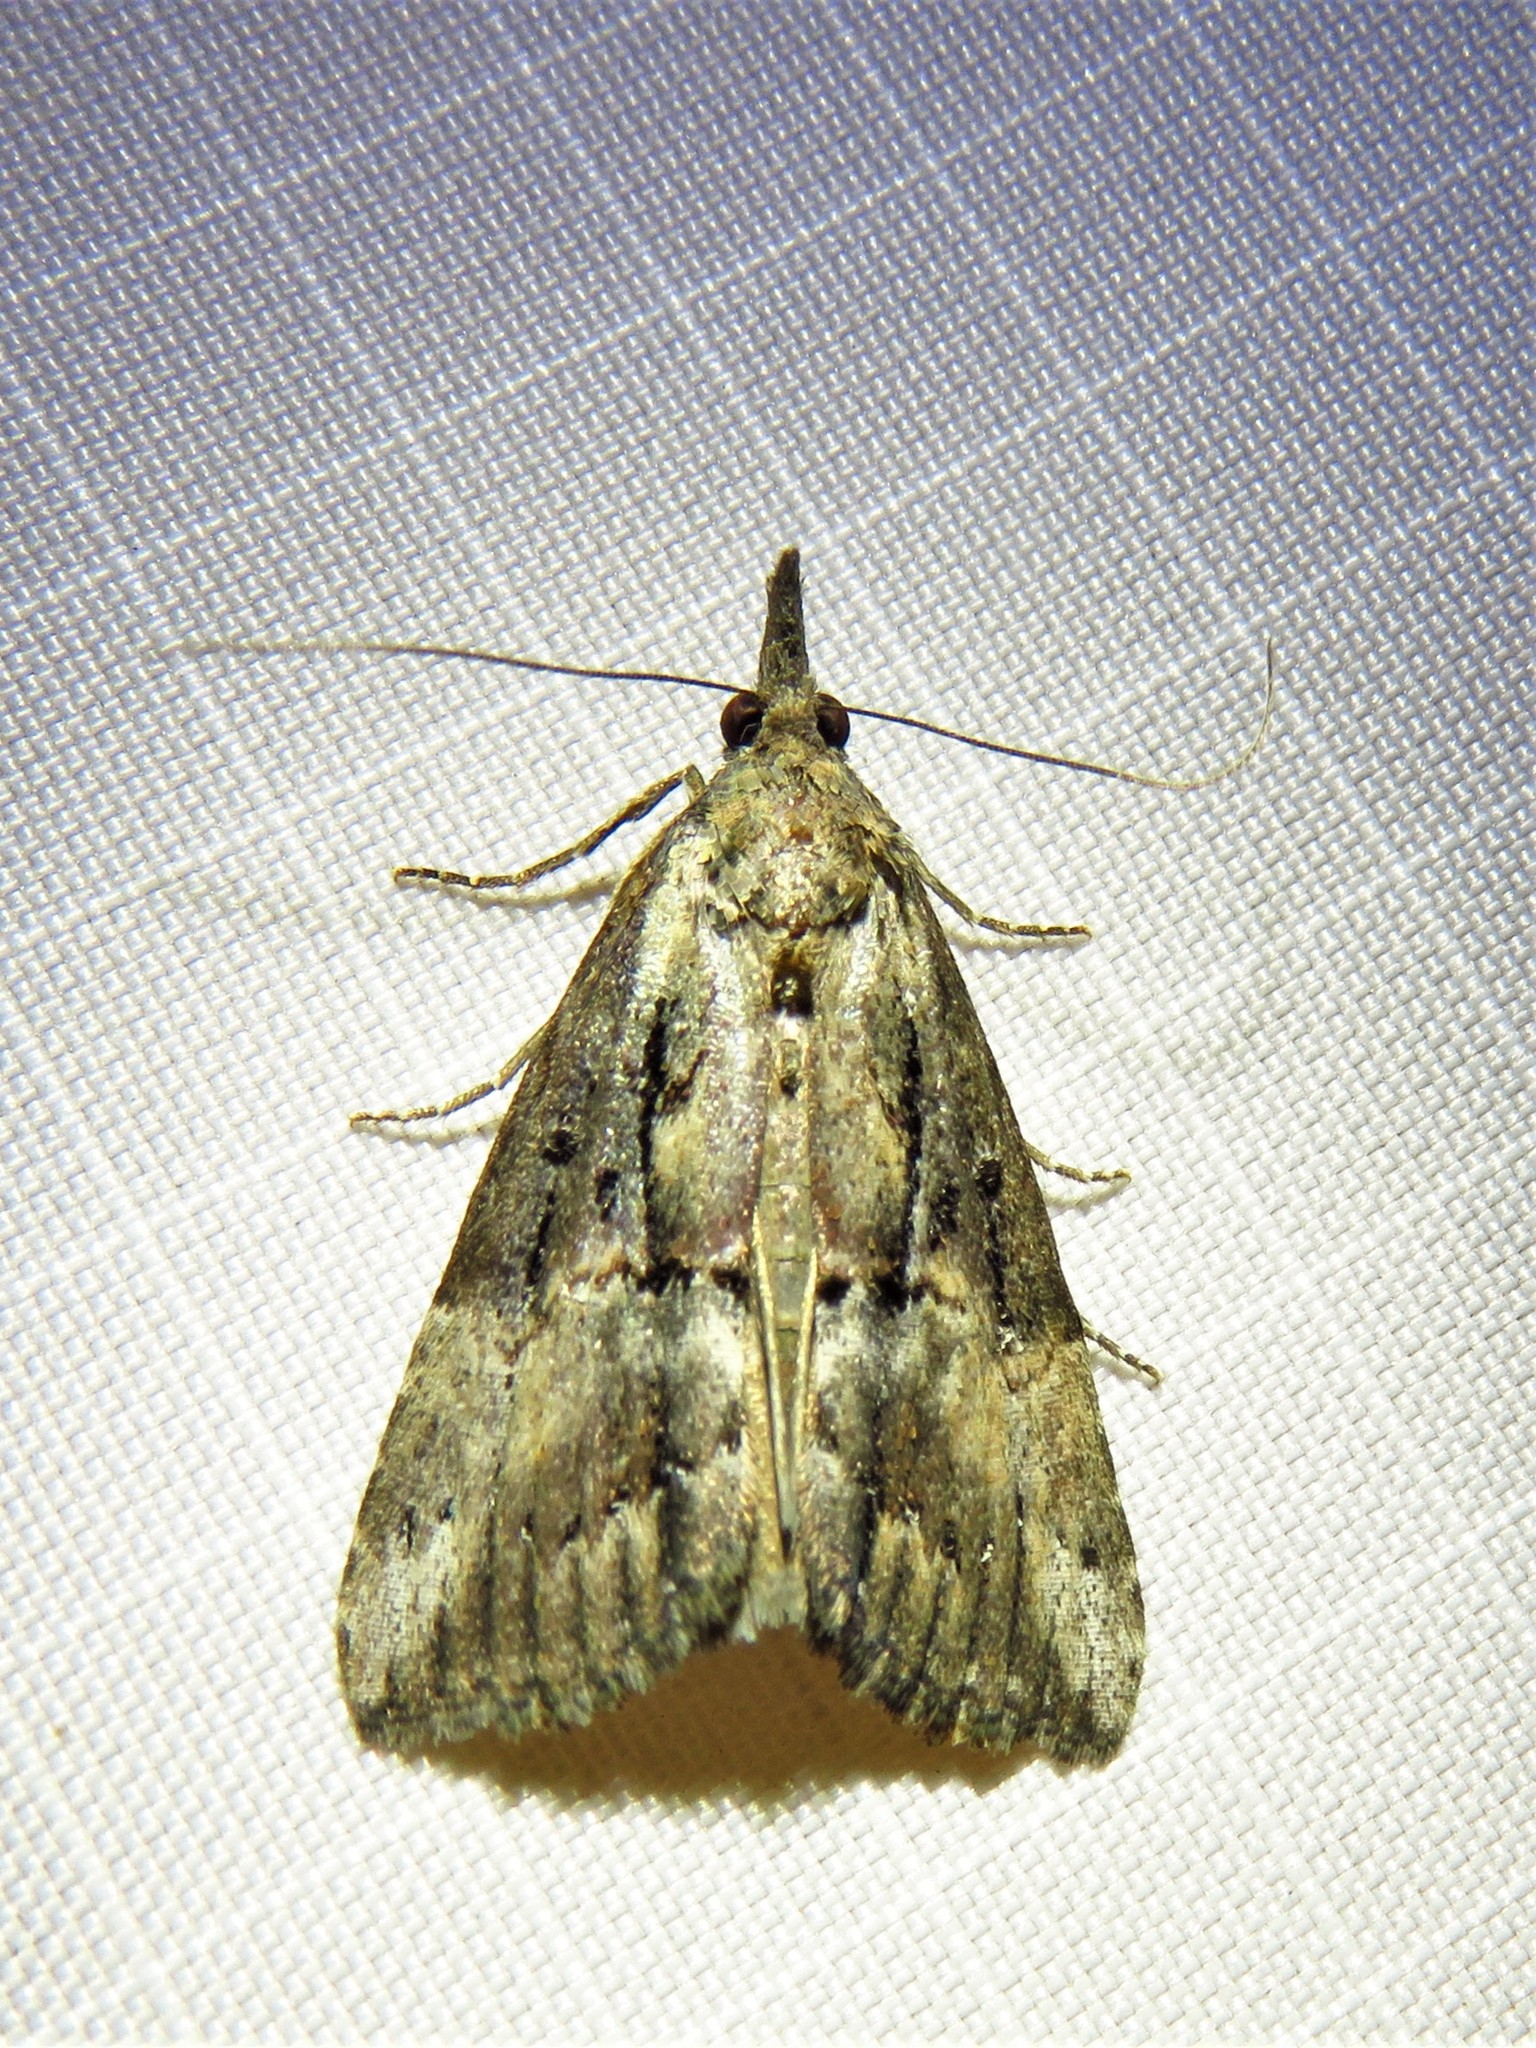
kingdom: Animalia
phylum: Arthropoda
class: Insecta
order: Lepidoptera
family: Erebidae
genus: Hypena
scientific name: Hypena scabra
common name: Green cloverworm
